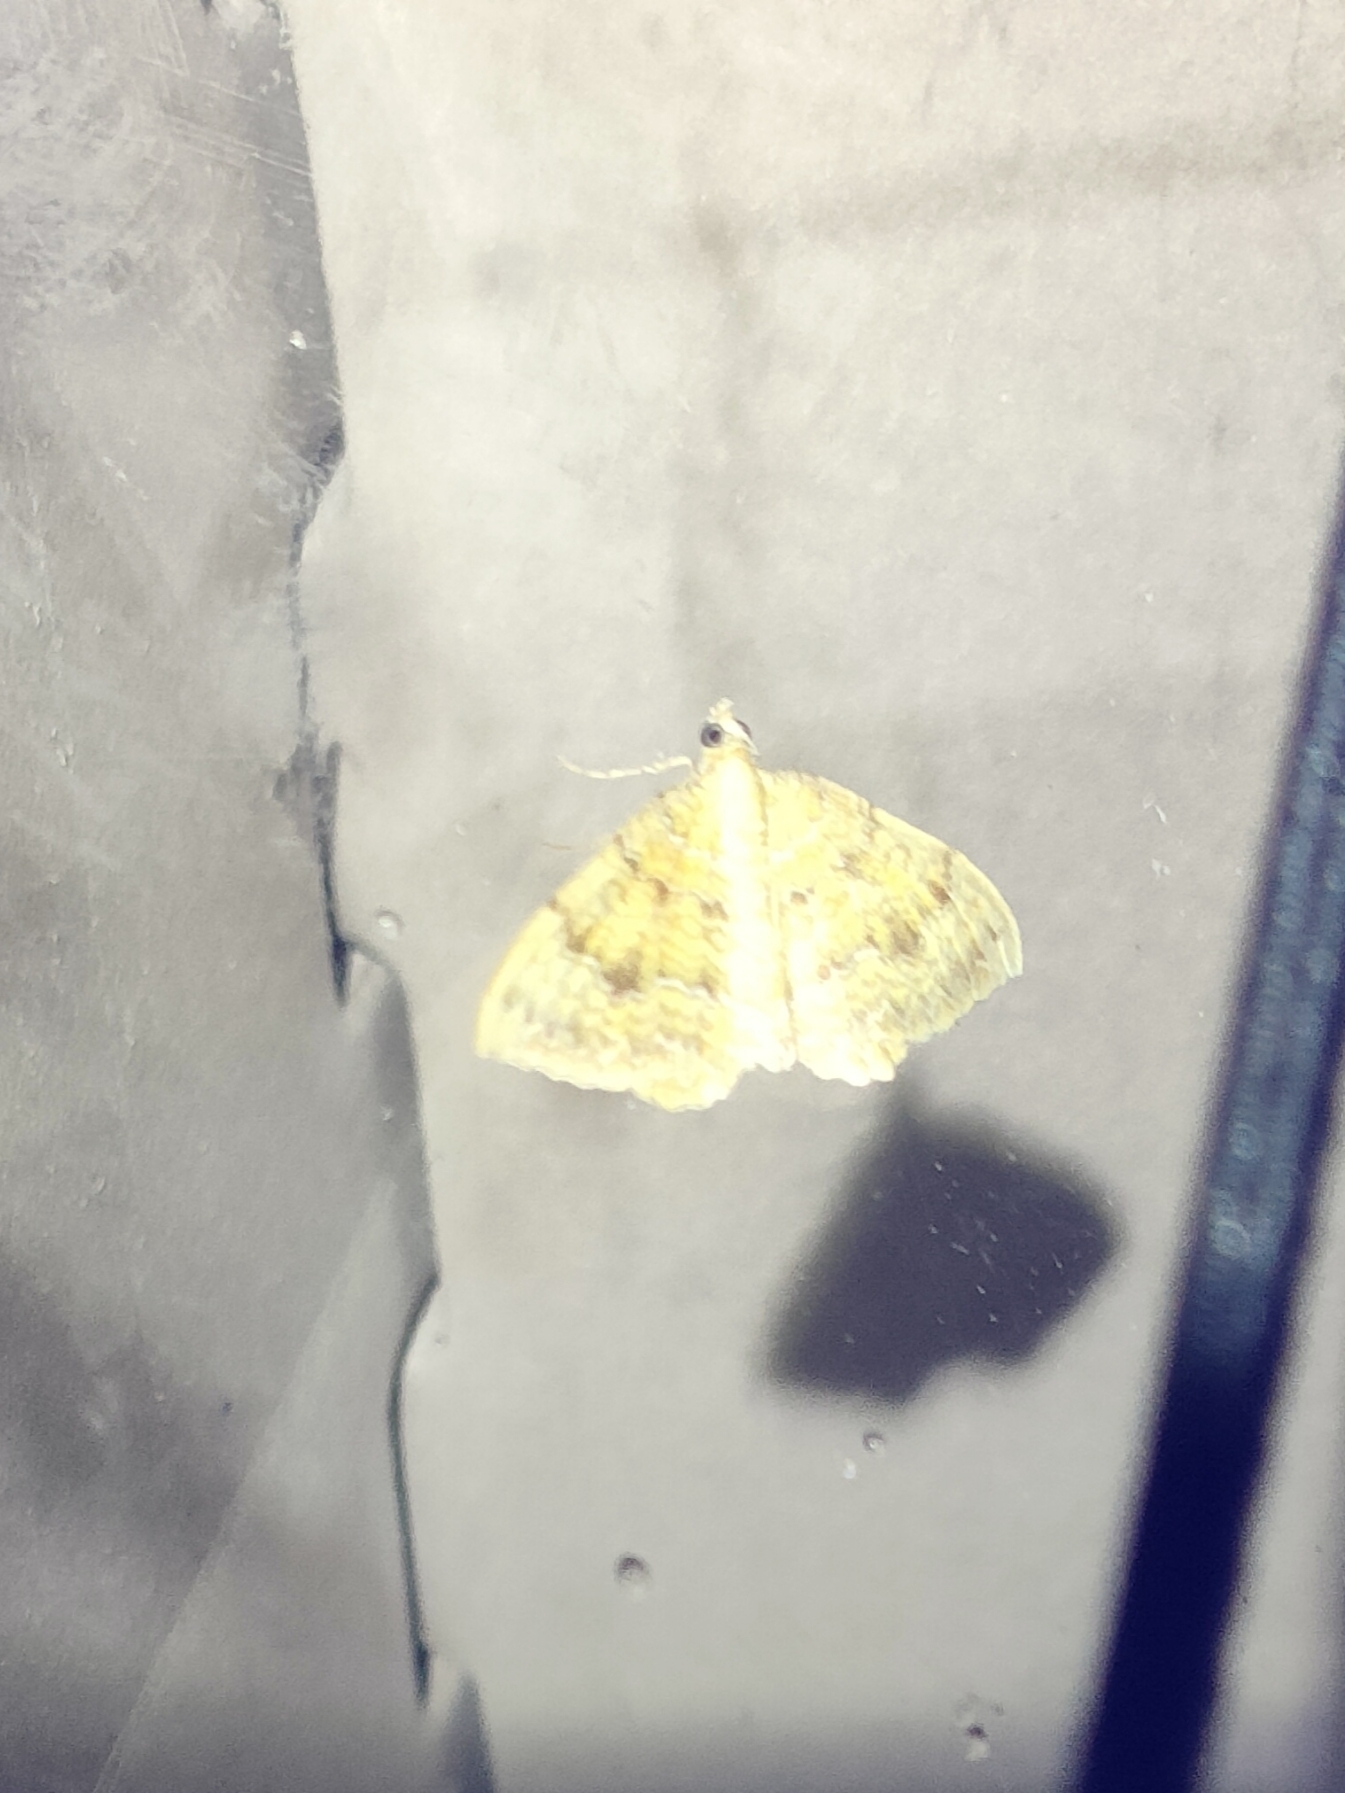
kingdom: Animalia
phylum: Arthropoda
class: Insecta
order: Lepidoptera
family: Geometridae
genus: Camptogramma
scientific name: Camptogramma bilineata
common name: Yellow shell
